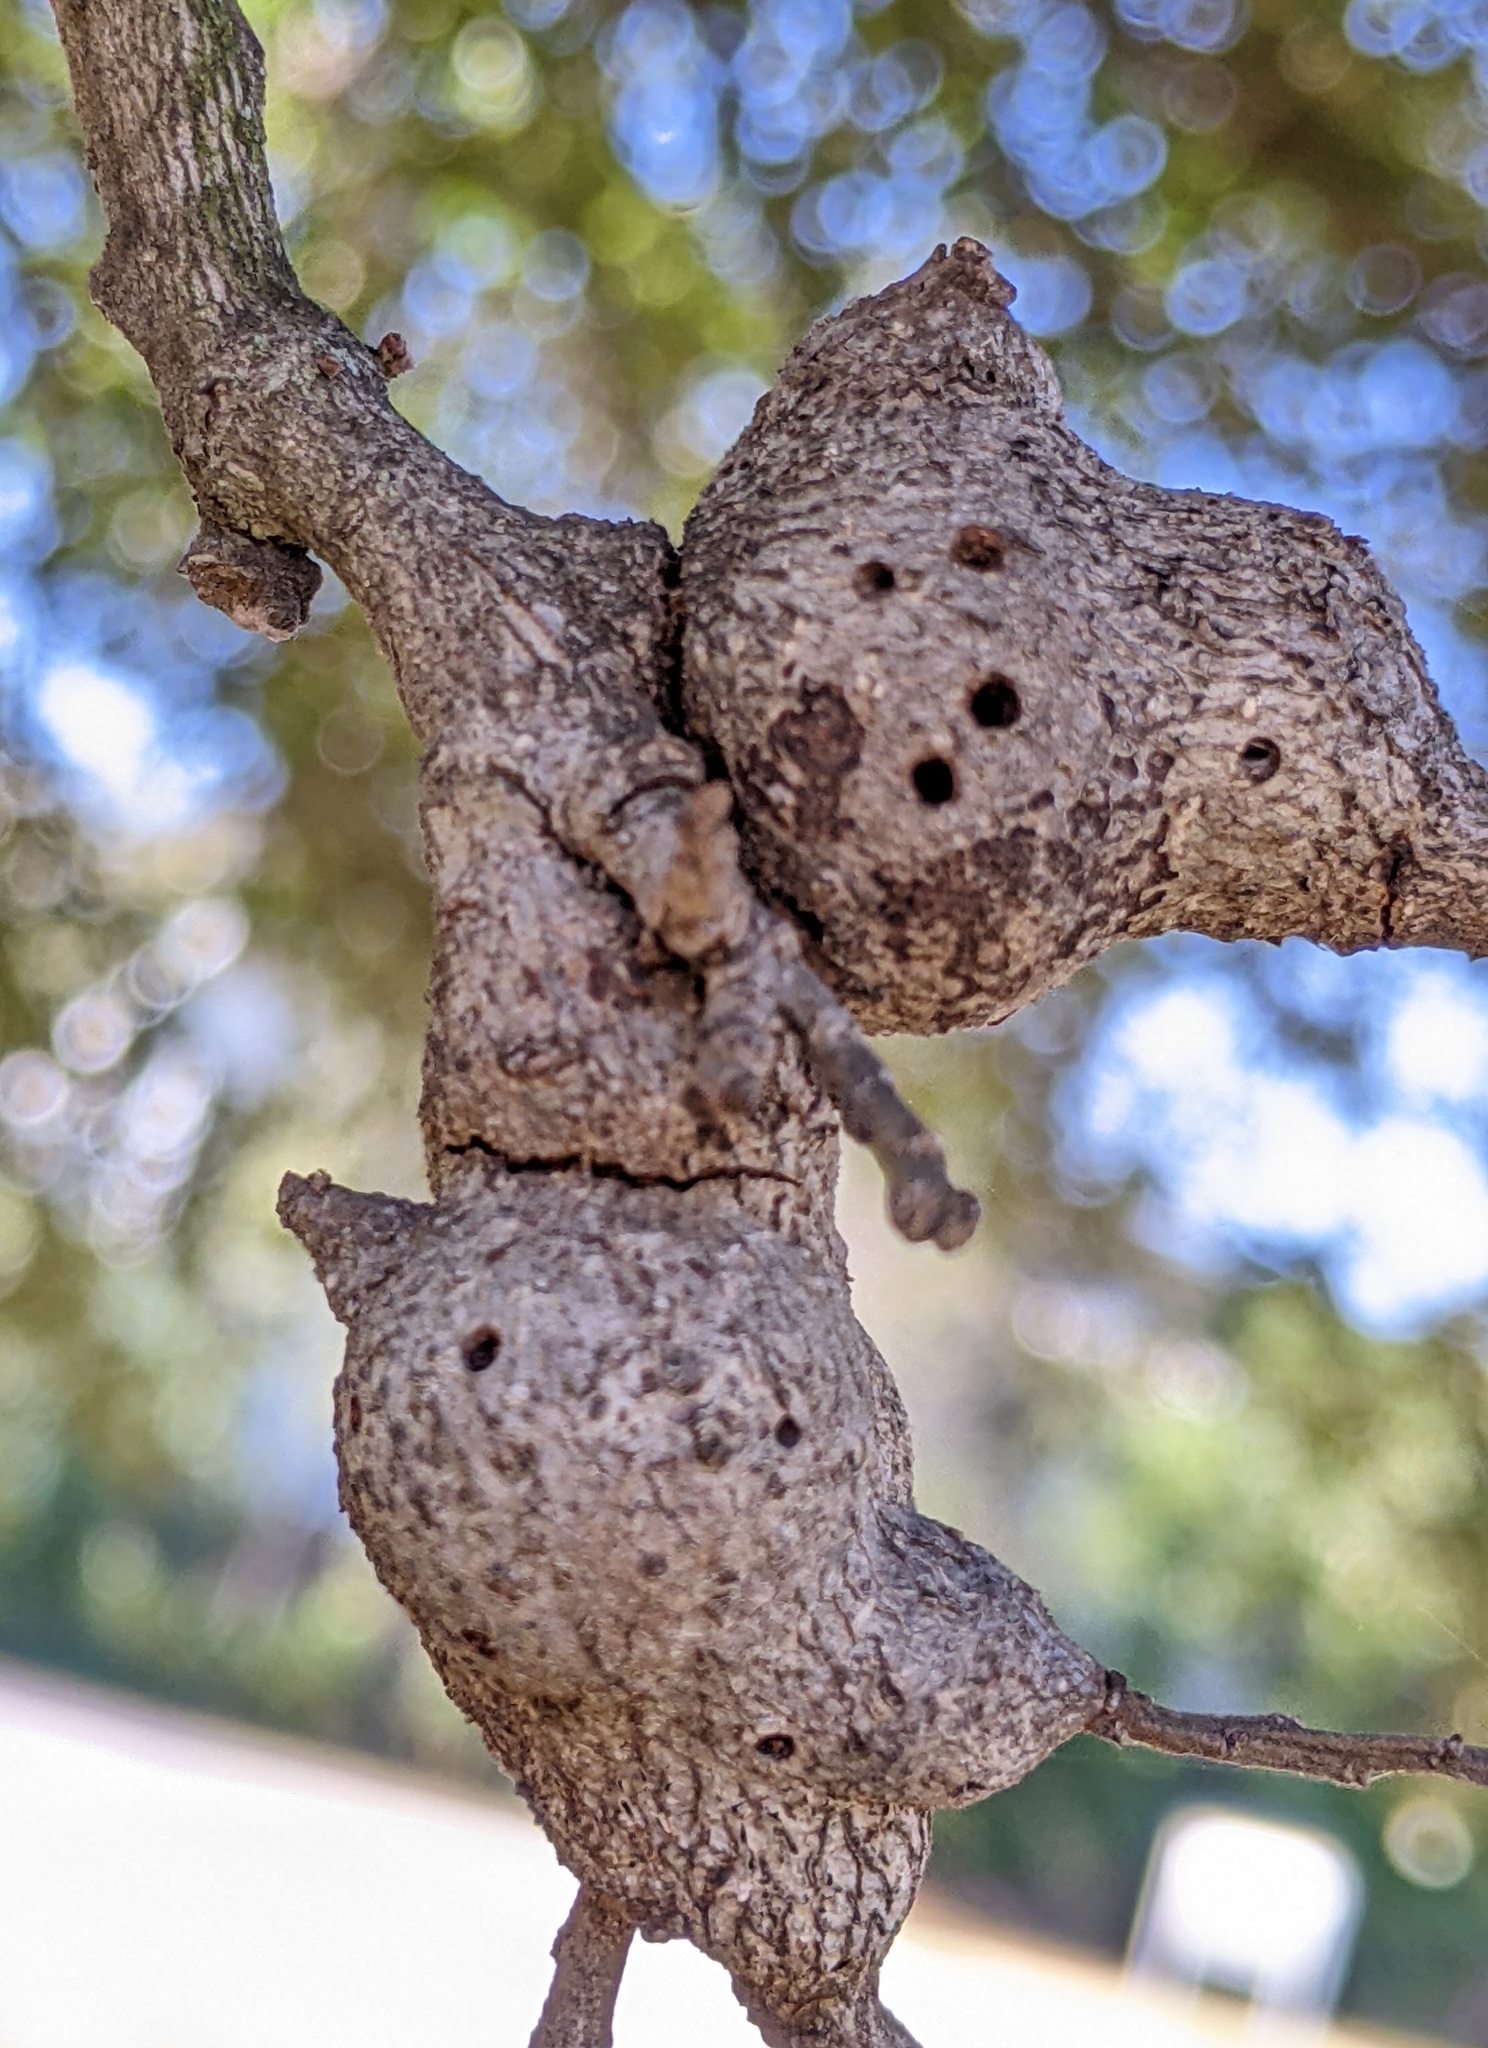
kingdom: Animalia
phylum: Arthropoda
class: Insecta
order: Hymenoptera
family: Cynipidae
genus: Callirhytis
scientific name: Callirhytis
